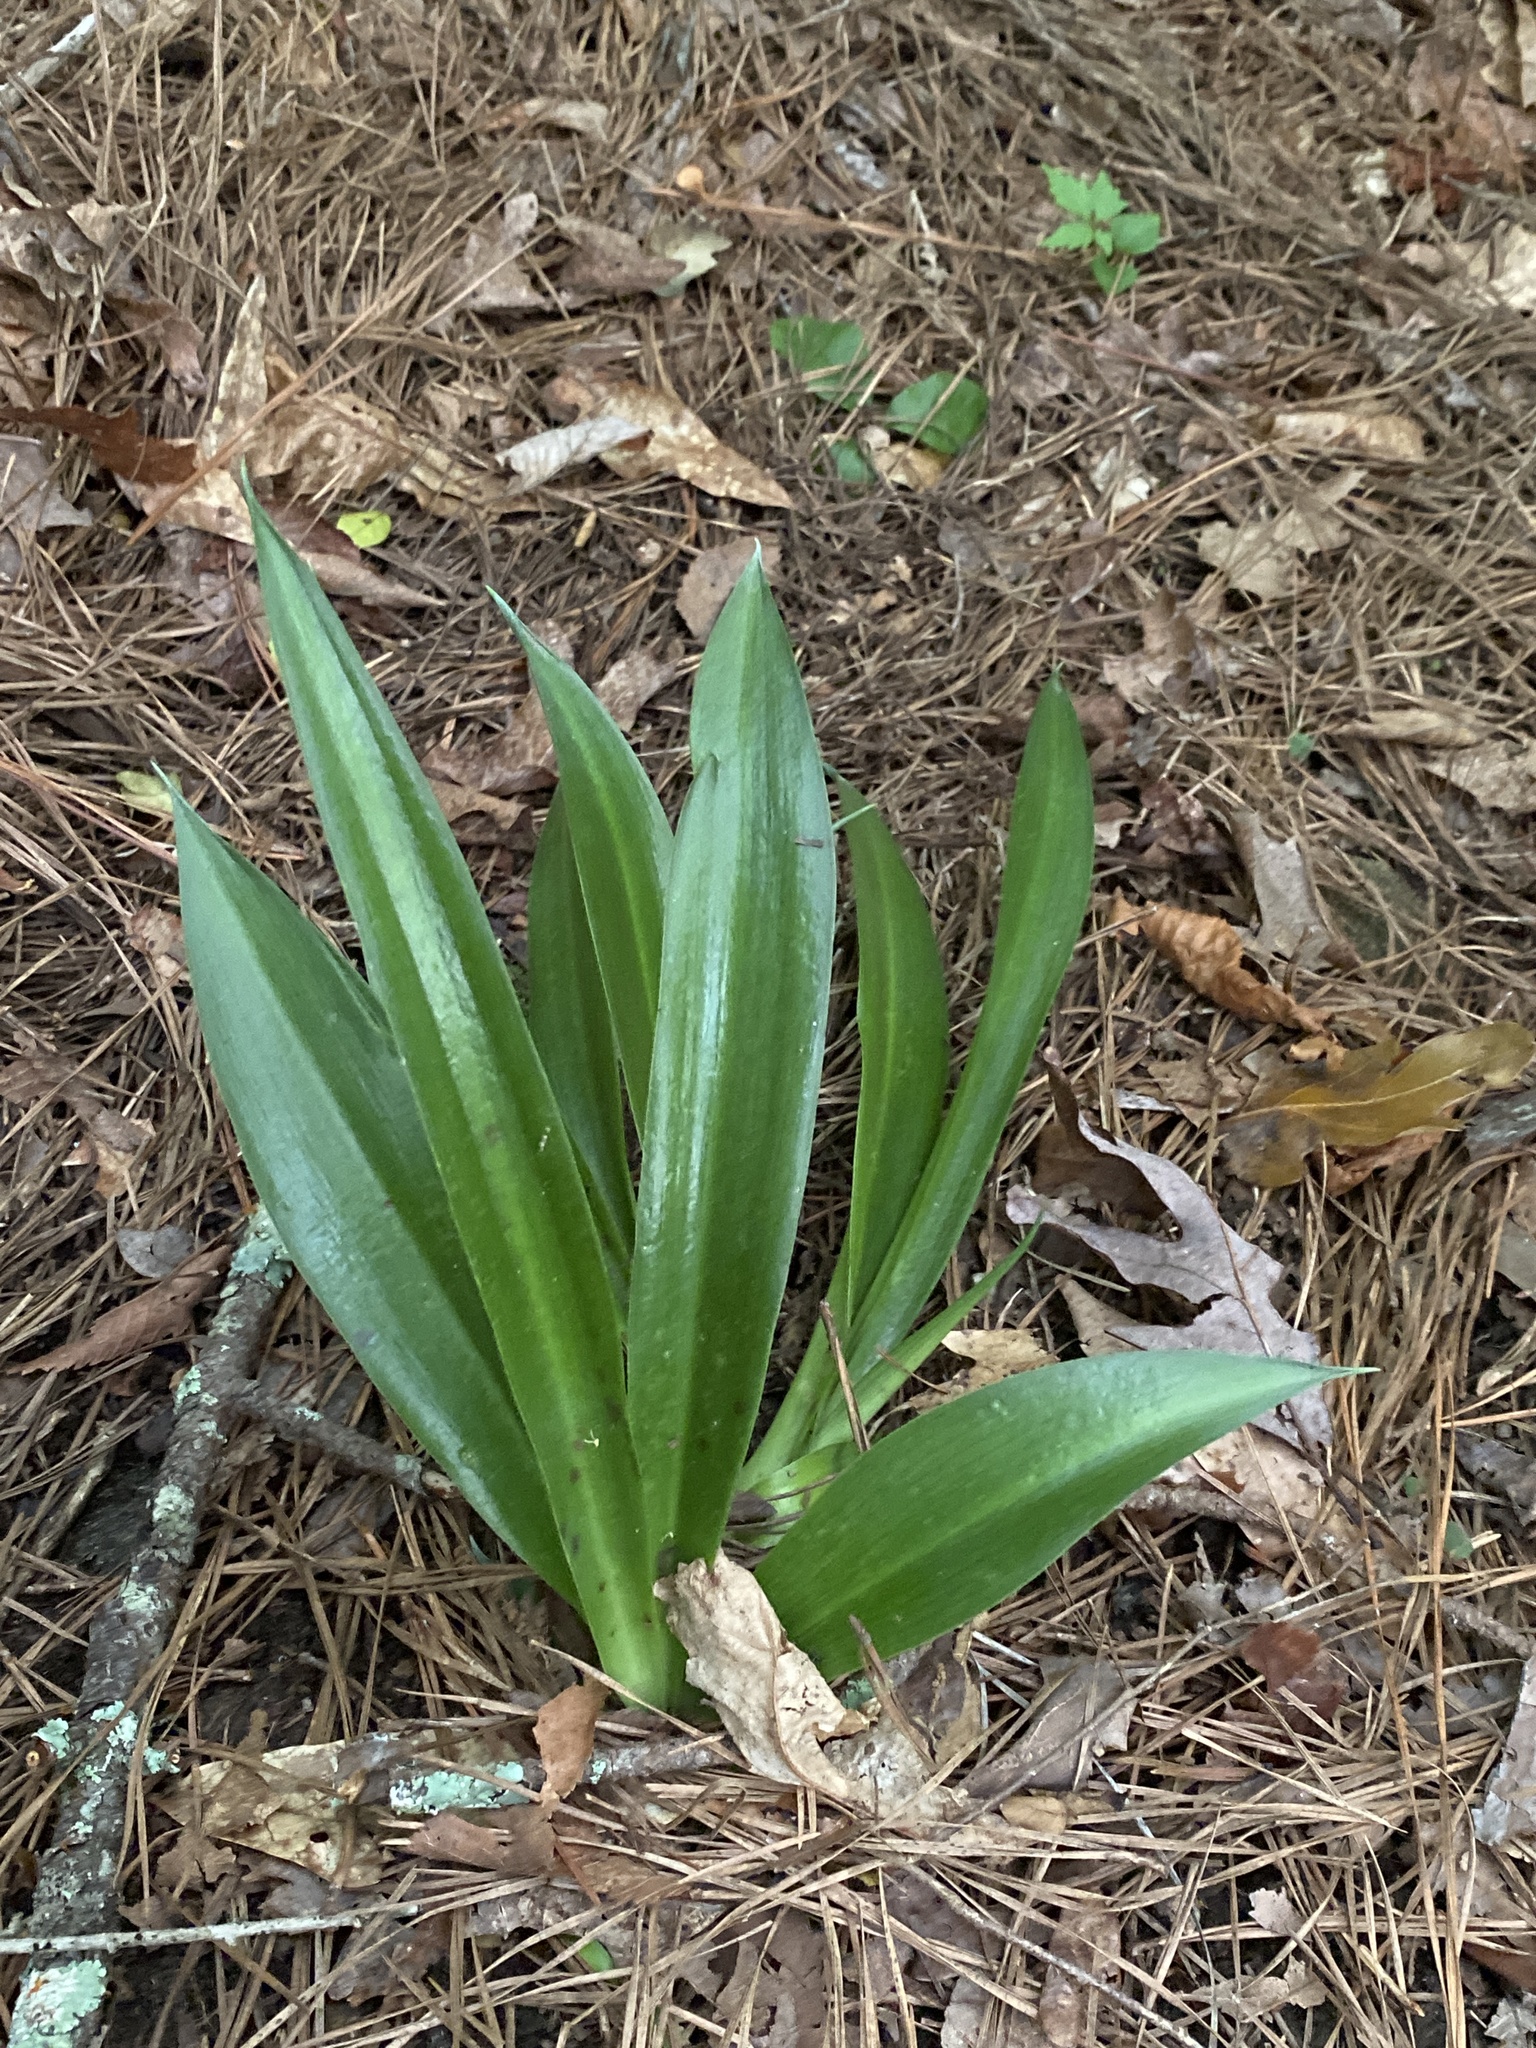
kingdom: Plantae
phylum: Tracheophyta
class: Liliopsida
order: Asparagales
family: Asparagaceae
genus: Agave
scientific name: Agave virginica
